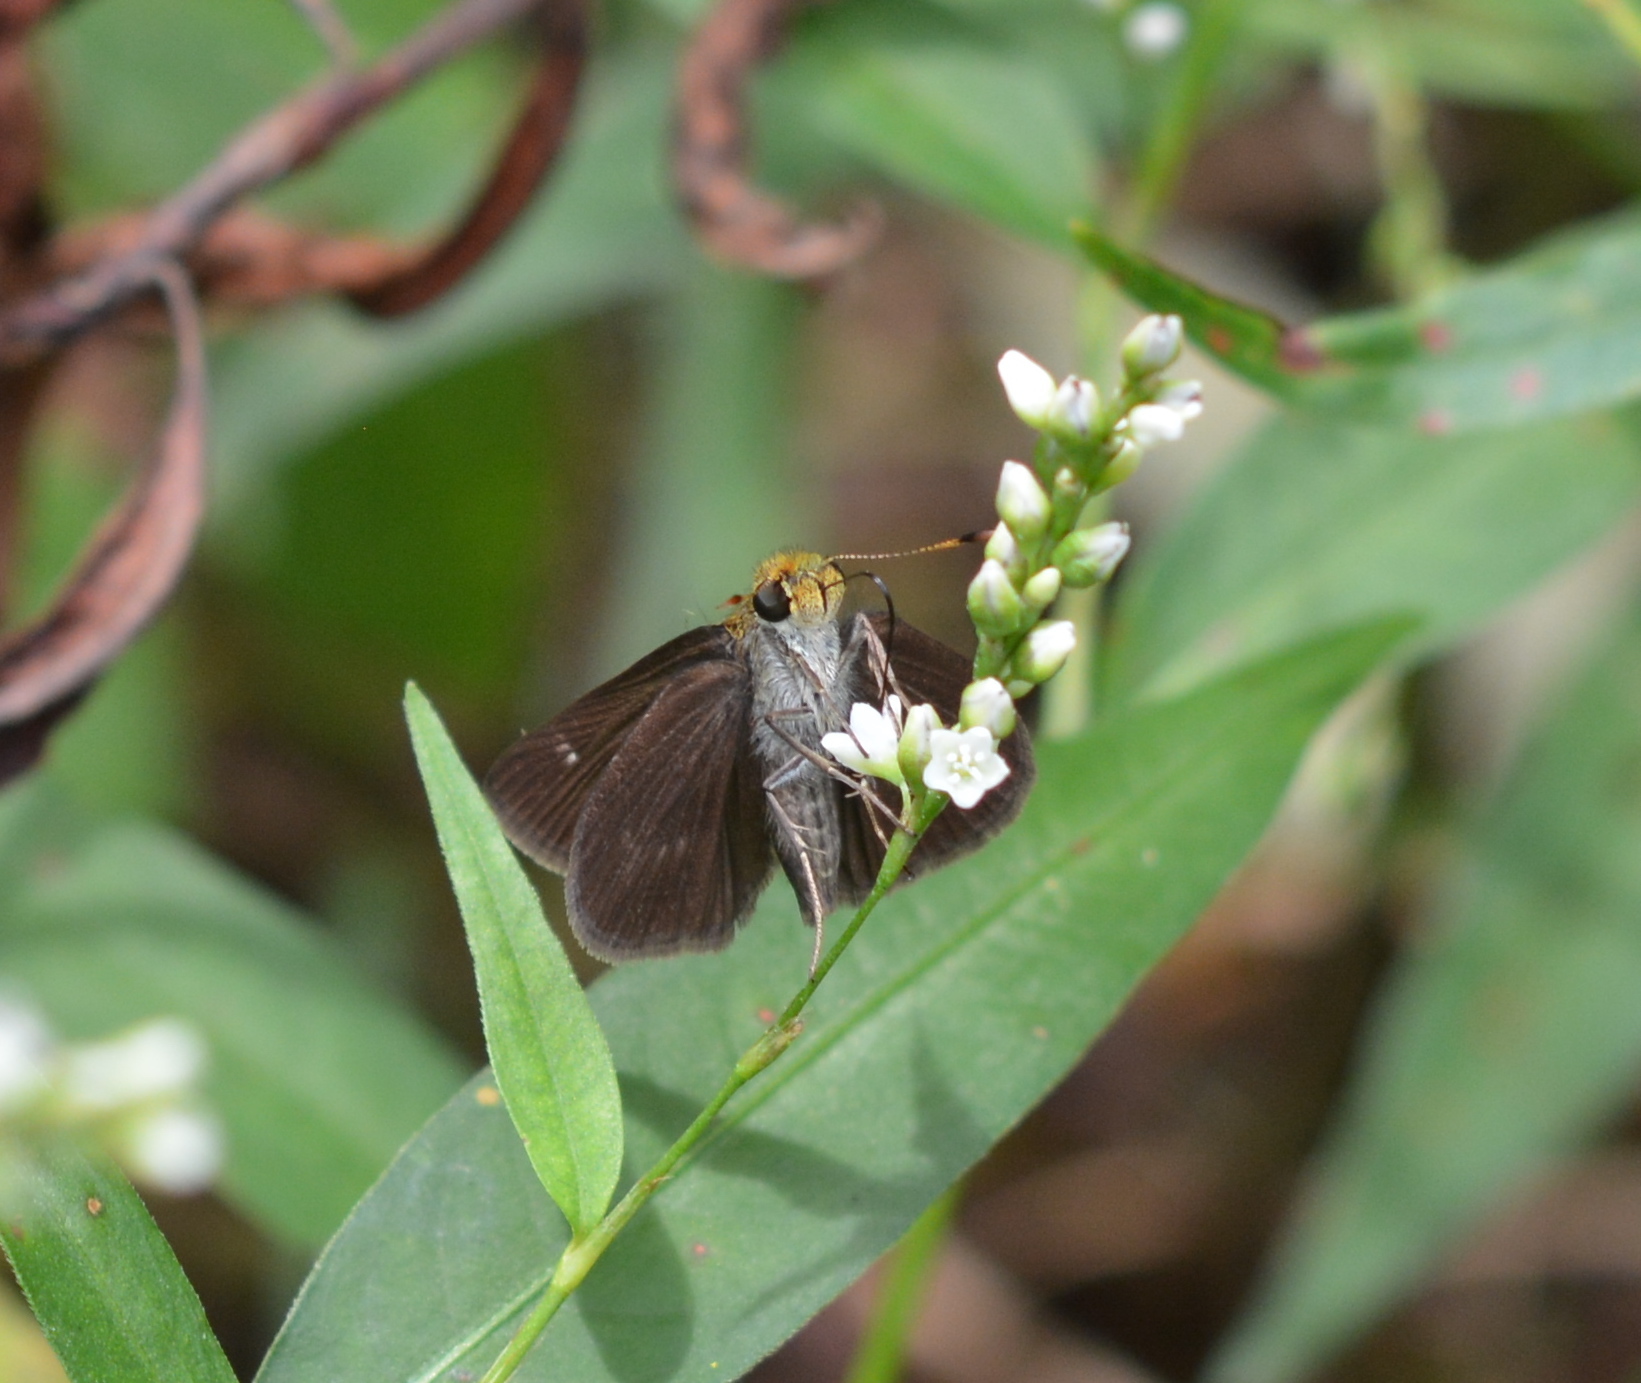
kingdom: Animalia
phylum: Arthropoda
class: Insecta
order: Lepidoptera
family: Hesperiidae
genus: Euphyes
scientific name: Euphyes vestris
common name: Dun skipper
